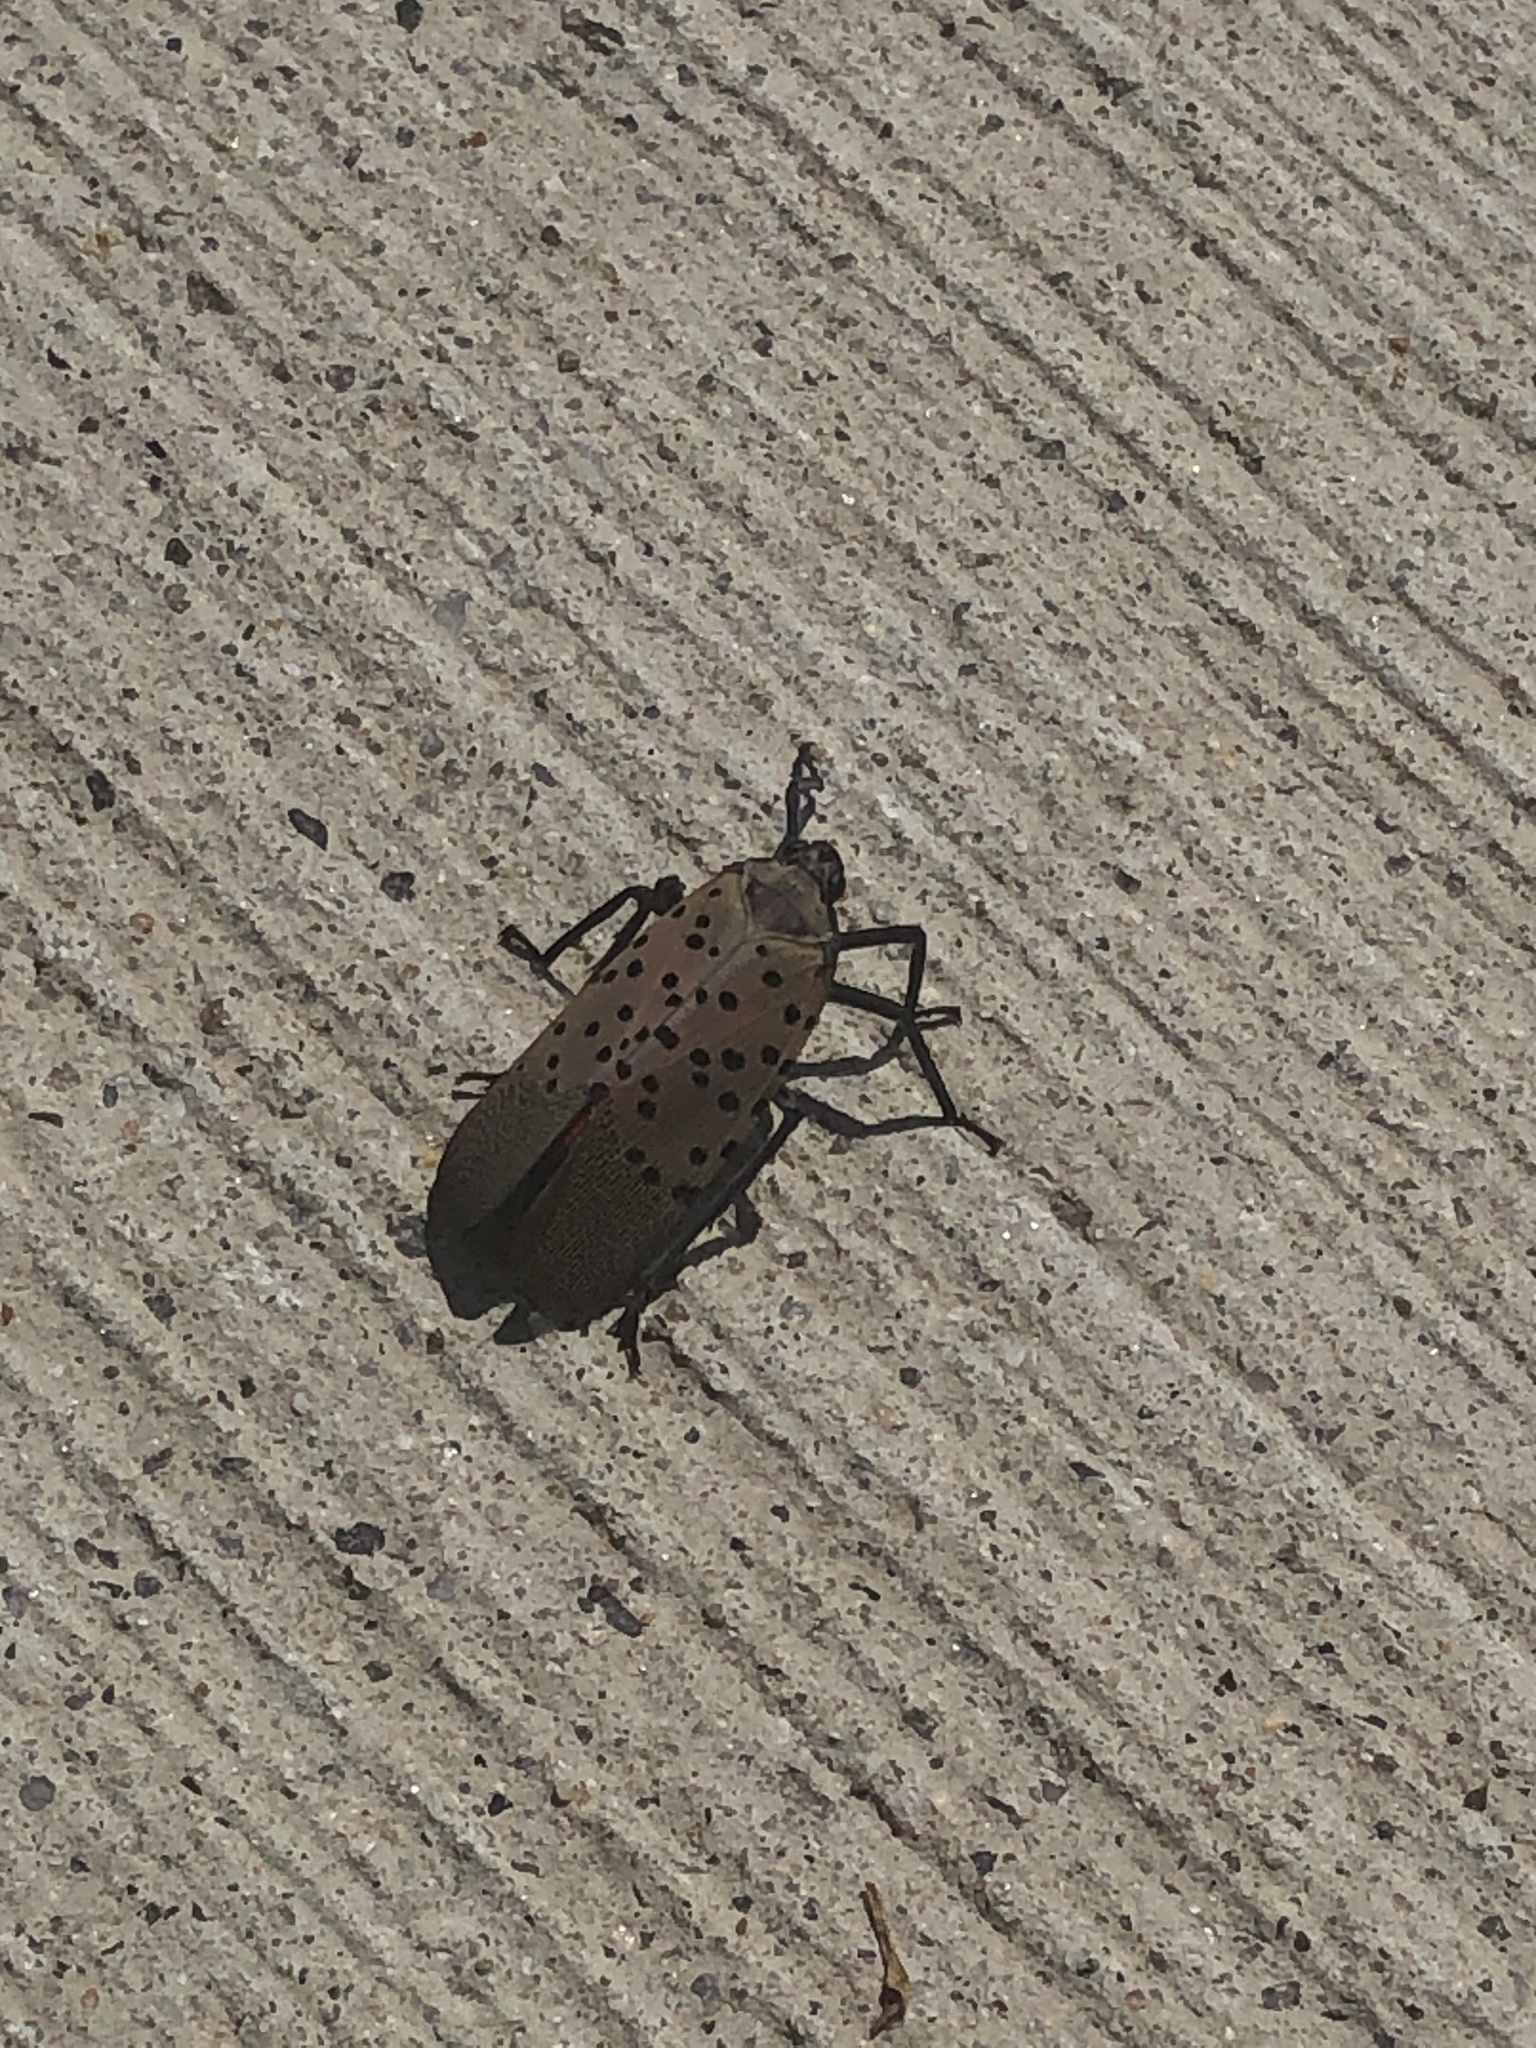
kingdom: Animalia
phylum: Arthropoda
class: Insecta
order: Hemiptera
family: Fulgoridae
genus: Lycorma
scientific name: Lycorma delicatula
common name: Spotted lanternfly
